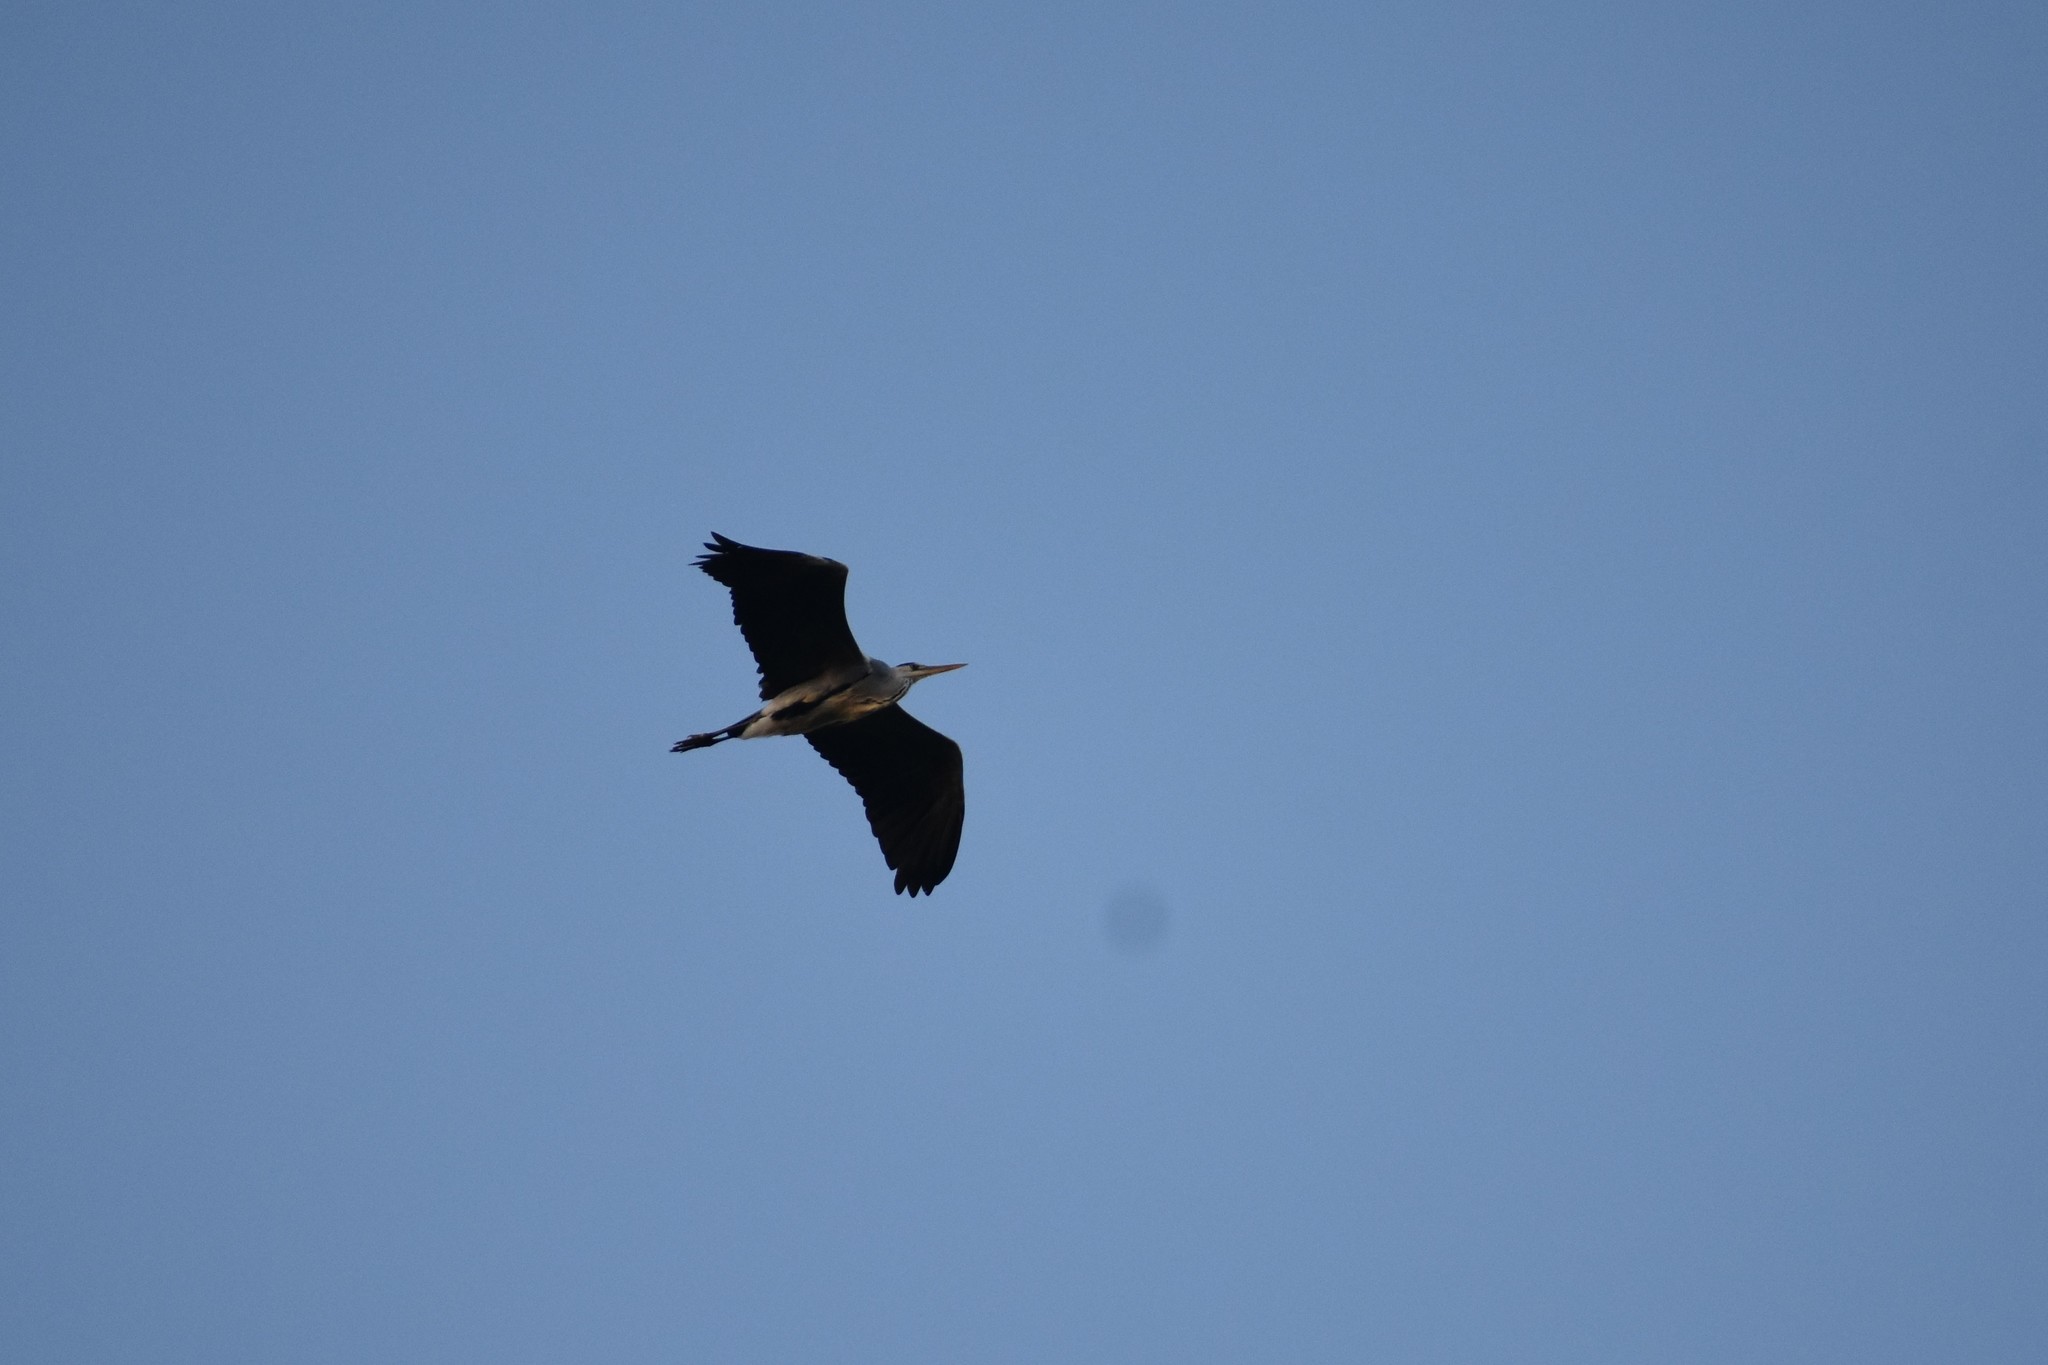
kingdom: Animalia
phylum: Chordata
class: Aves
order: Pelecaniformes
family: Ardeidae
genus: Ardea
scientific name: Ardea cinerea
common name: Grey heron
